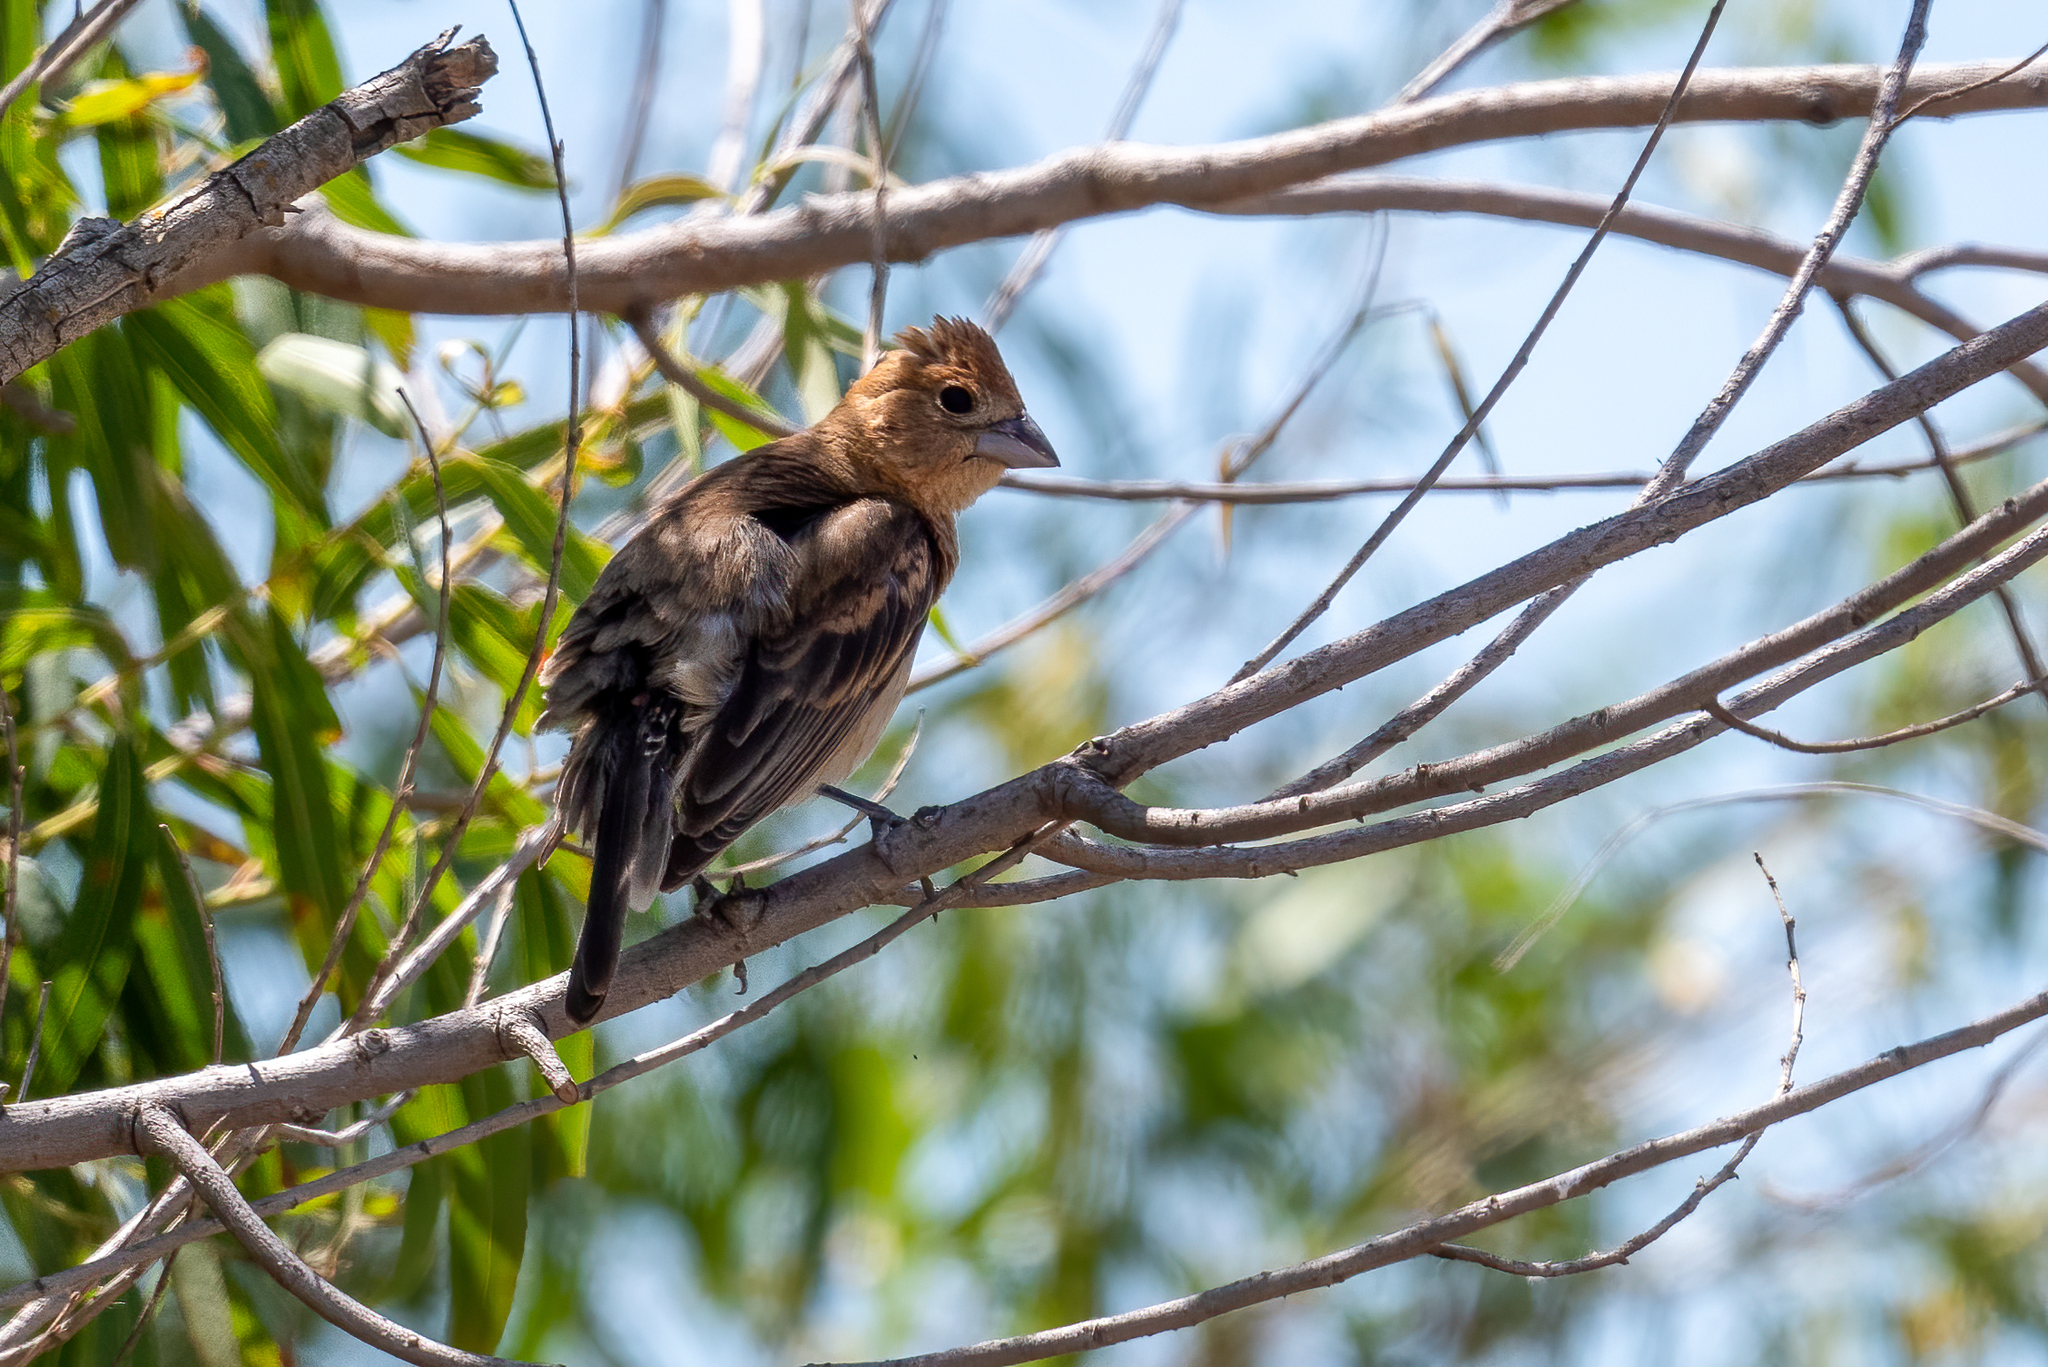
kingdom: Animalia
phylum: Chordata
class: Aves
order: Passeriformes
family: Cardinalidae
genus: Passerina
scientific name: Passerina caerulea
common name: Blue grosbeak
